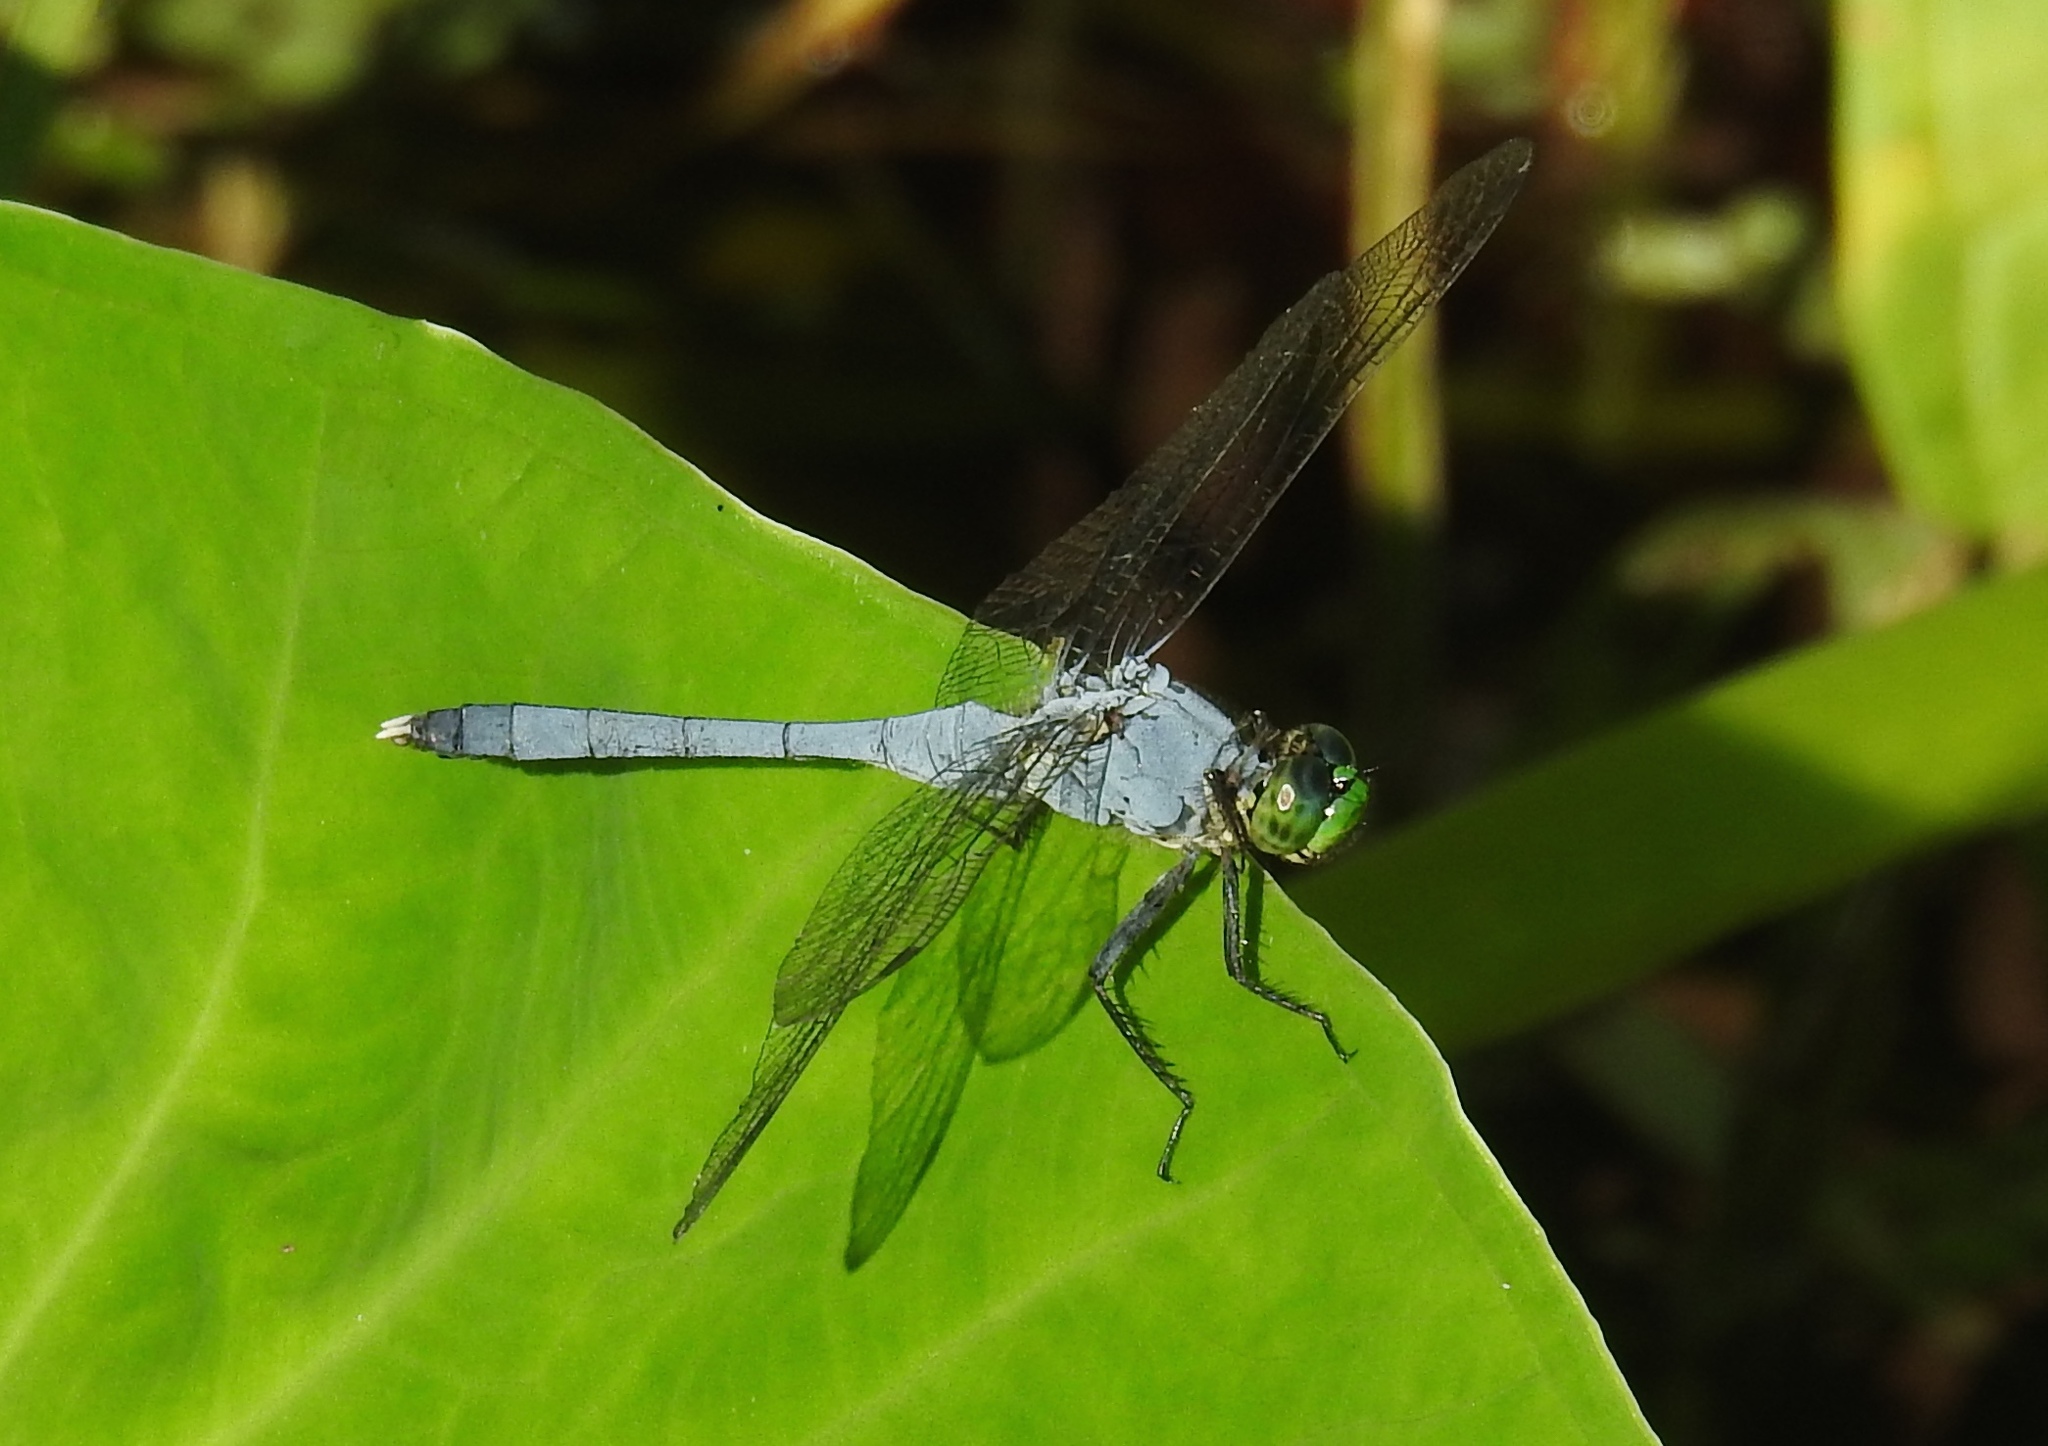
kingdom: Animalia
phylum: Arthropoda
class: Insecta
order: Odonata
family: Libellulidae
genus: Erythemis
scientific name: Erythemis simplicicollis
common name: Eastern pondhawk
